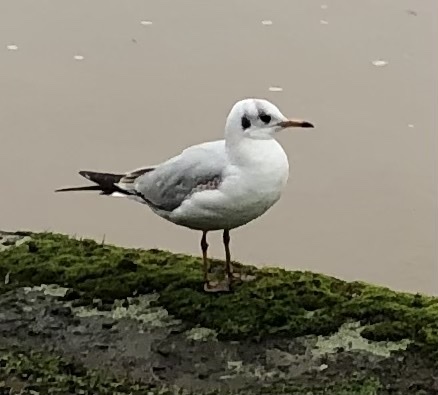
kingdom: Animalia
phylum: Chordata
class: Aves
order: Charadriiformes
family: Laridae
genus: Chroicocephalus
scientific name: Chroicocephalus ridibundus
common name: Black-headed gull
